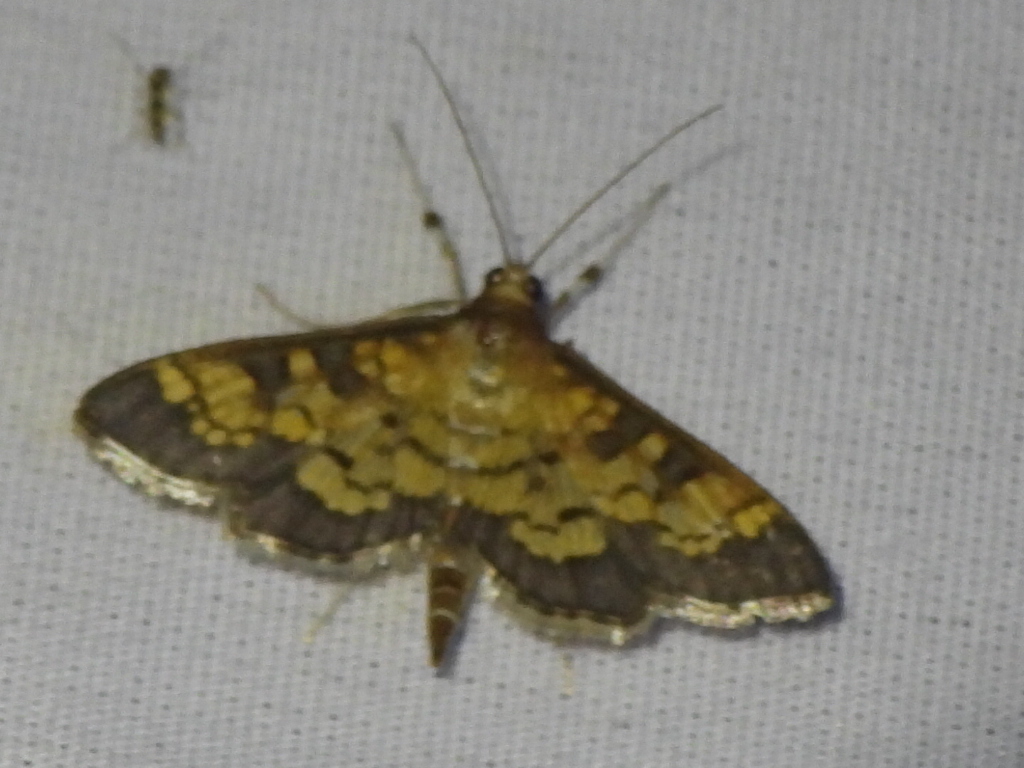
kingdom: Animalia
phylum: Arthropoda
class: Insecta
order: Lepidoptera
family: Crambidae
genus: Cryptographis
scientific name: Cryptographis elealis
